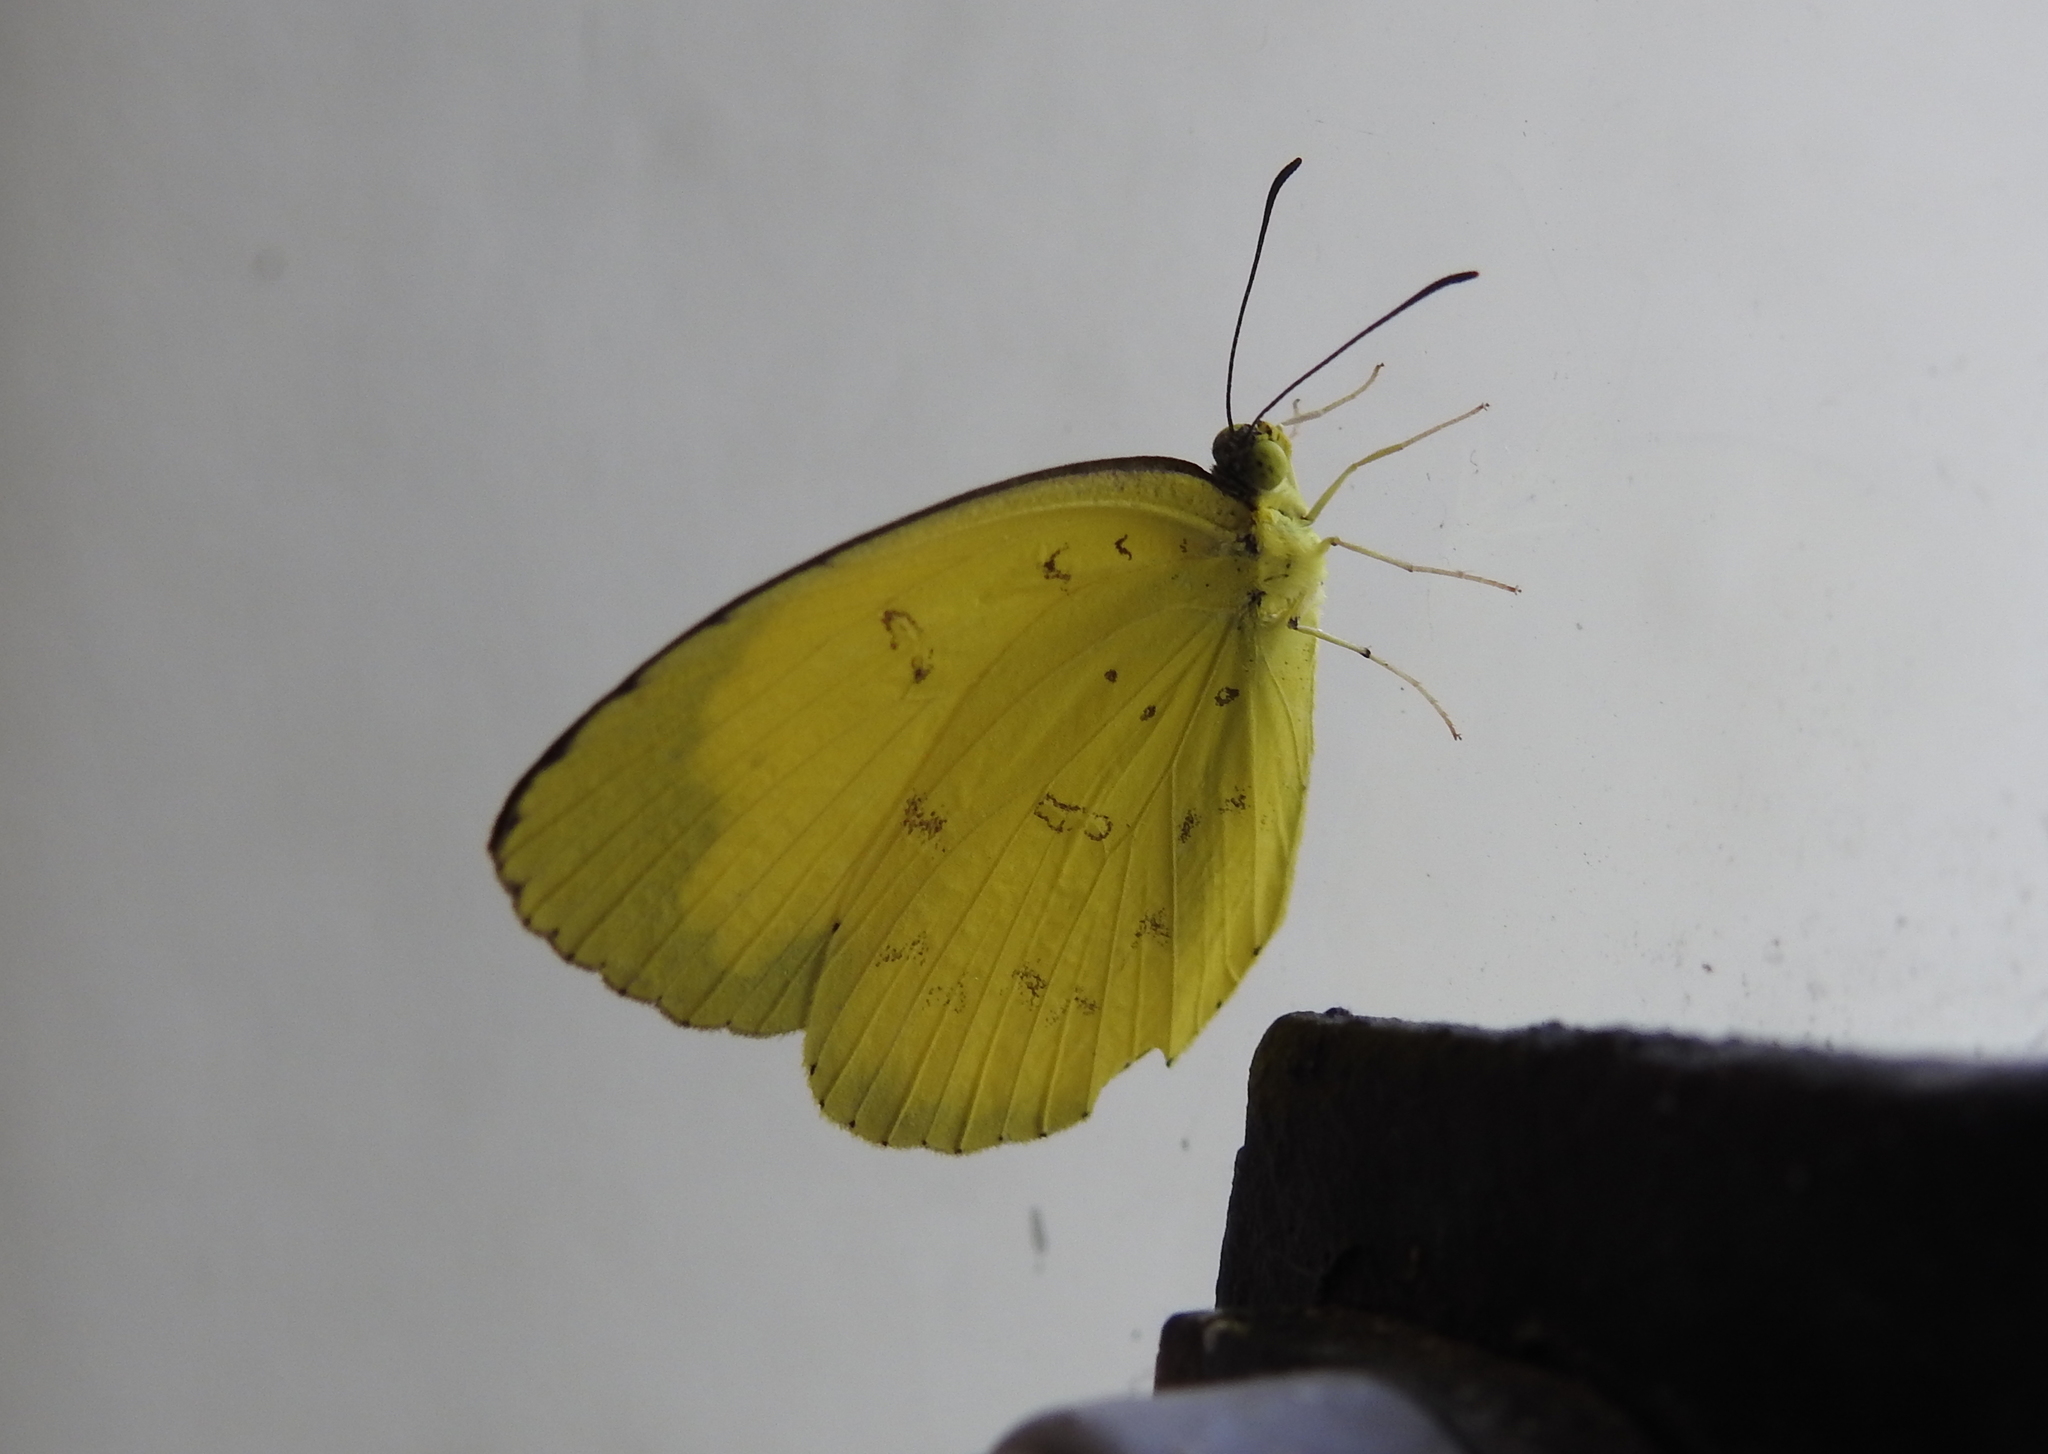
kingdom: Animalia
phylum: Arthropoda
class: Insecta
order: Lepidoptera
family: Pieridae
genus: Eurema
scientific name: Eurema hecabe
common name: Pale grass yellow
